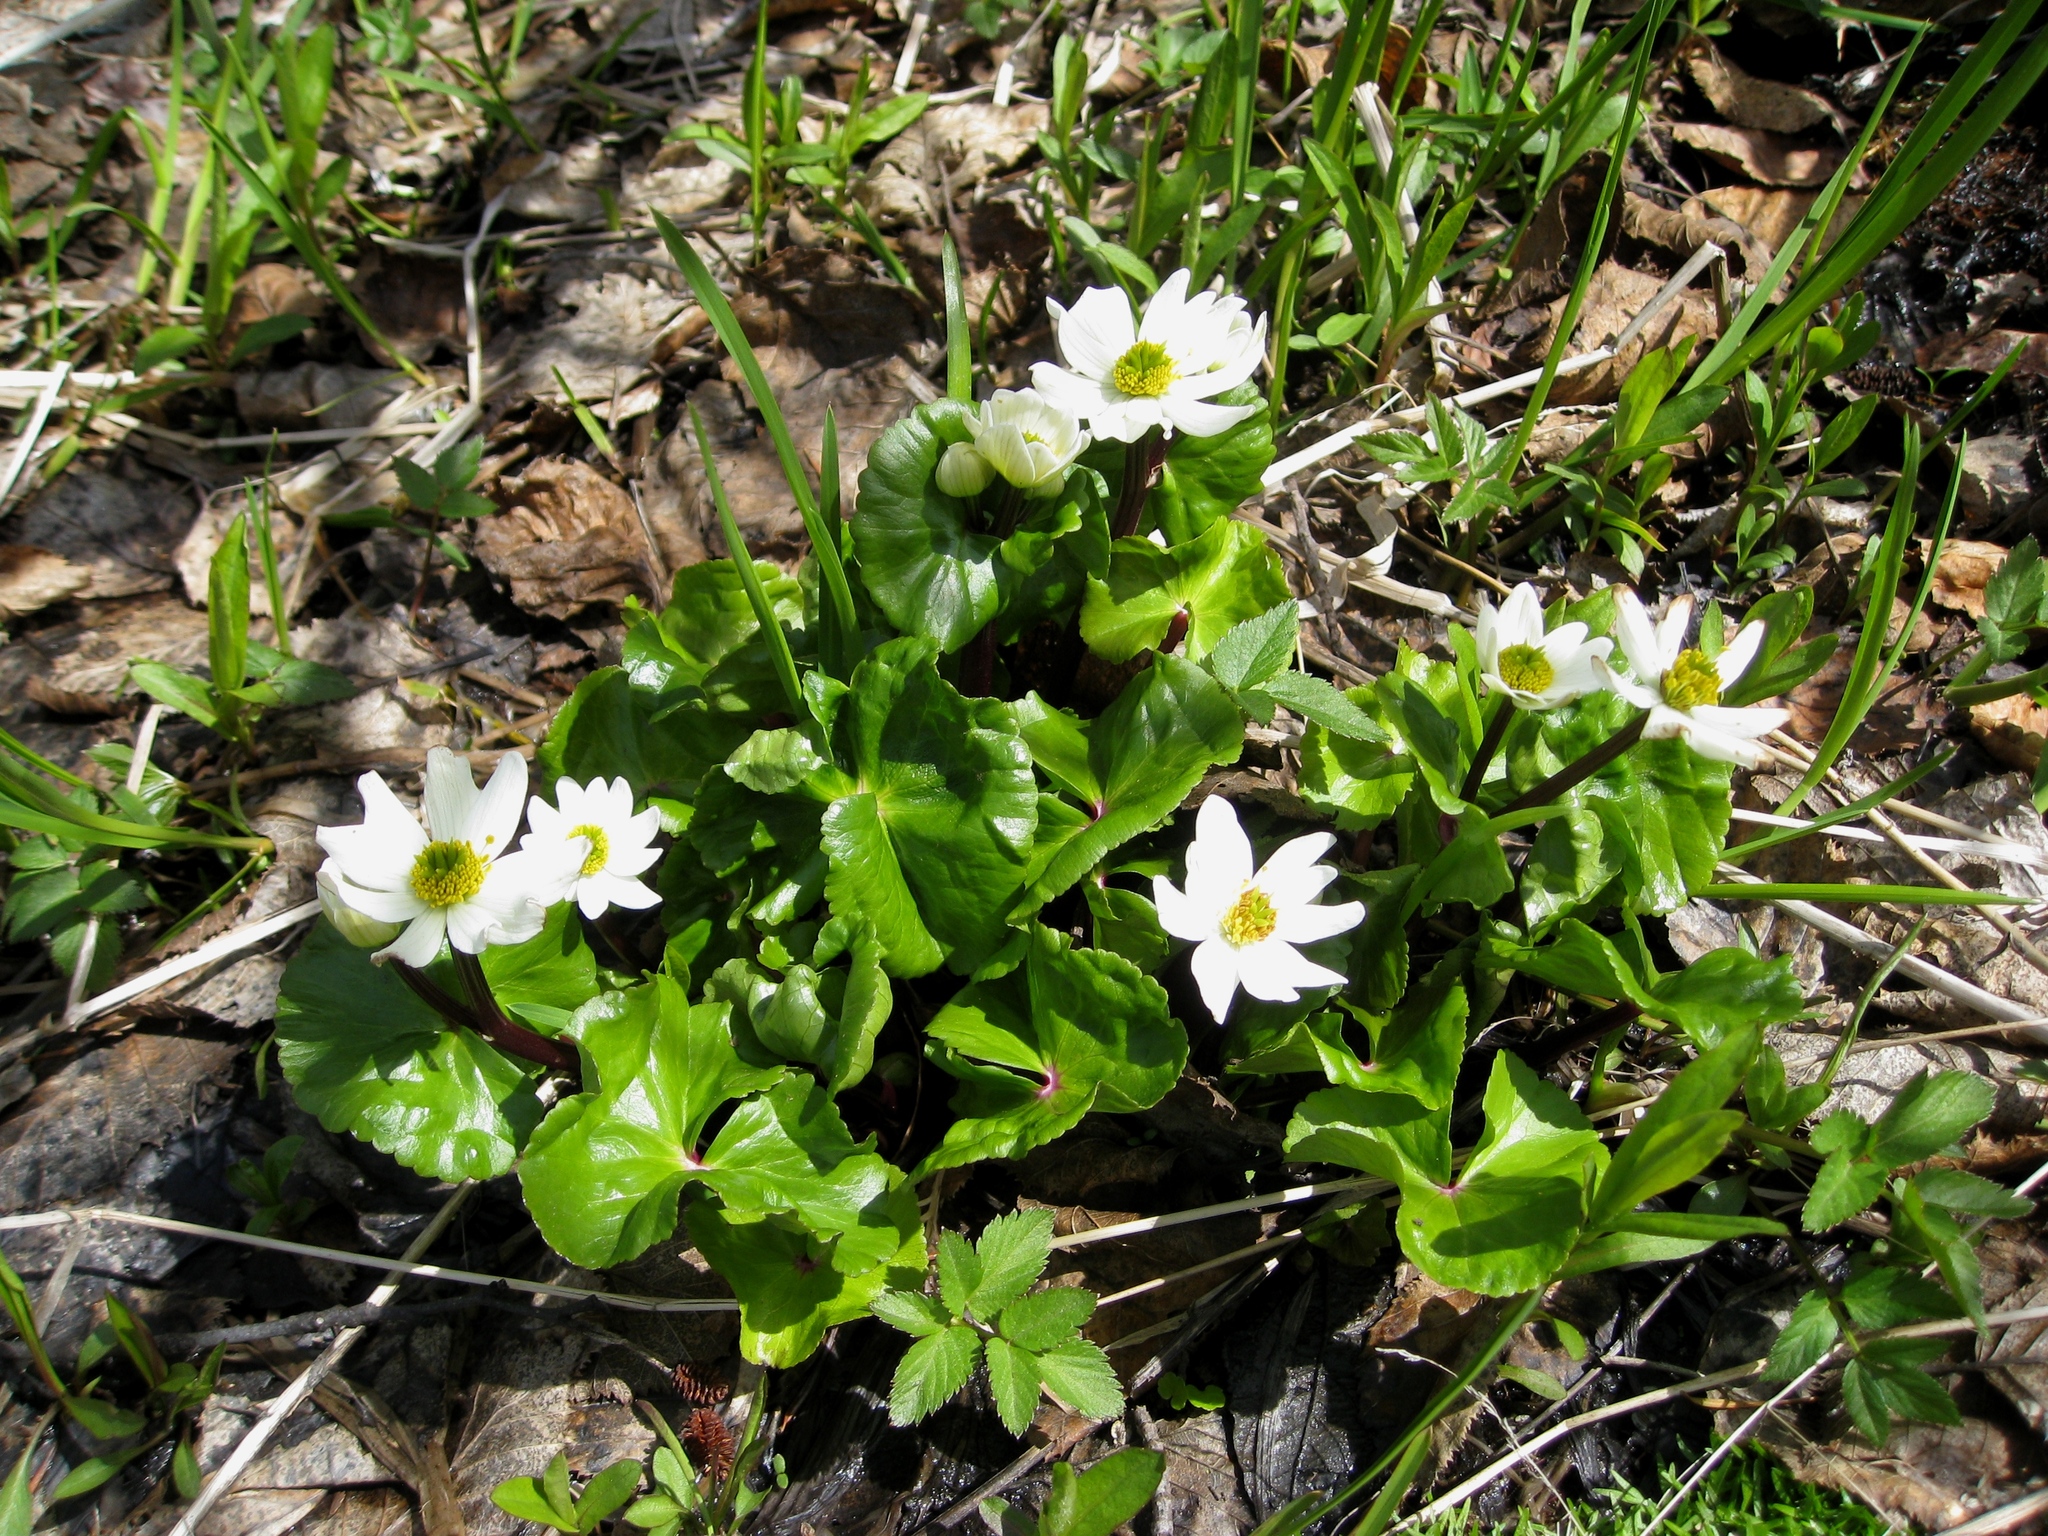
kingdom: Plantae
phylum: Tracheophyta
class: Magnoliopsida
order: Ranunculales
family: Ranunculaceae
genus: Caltha
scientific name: Caltha leptosepala
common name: Elkslip
